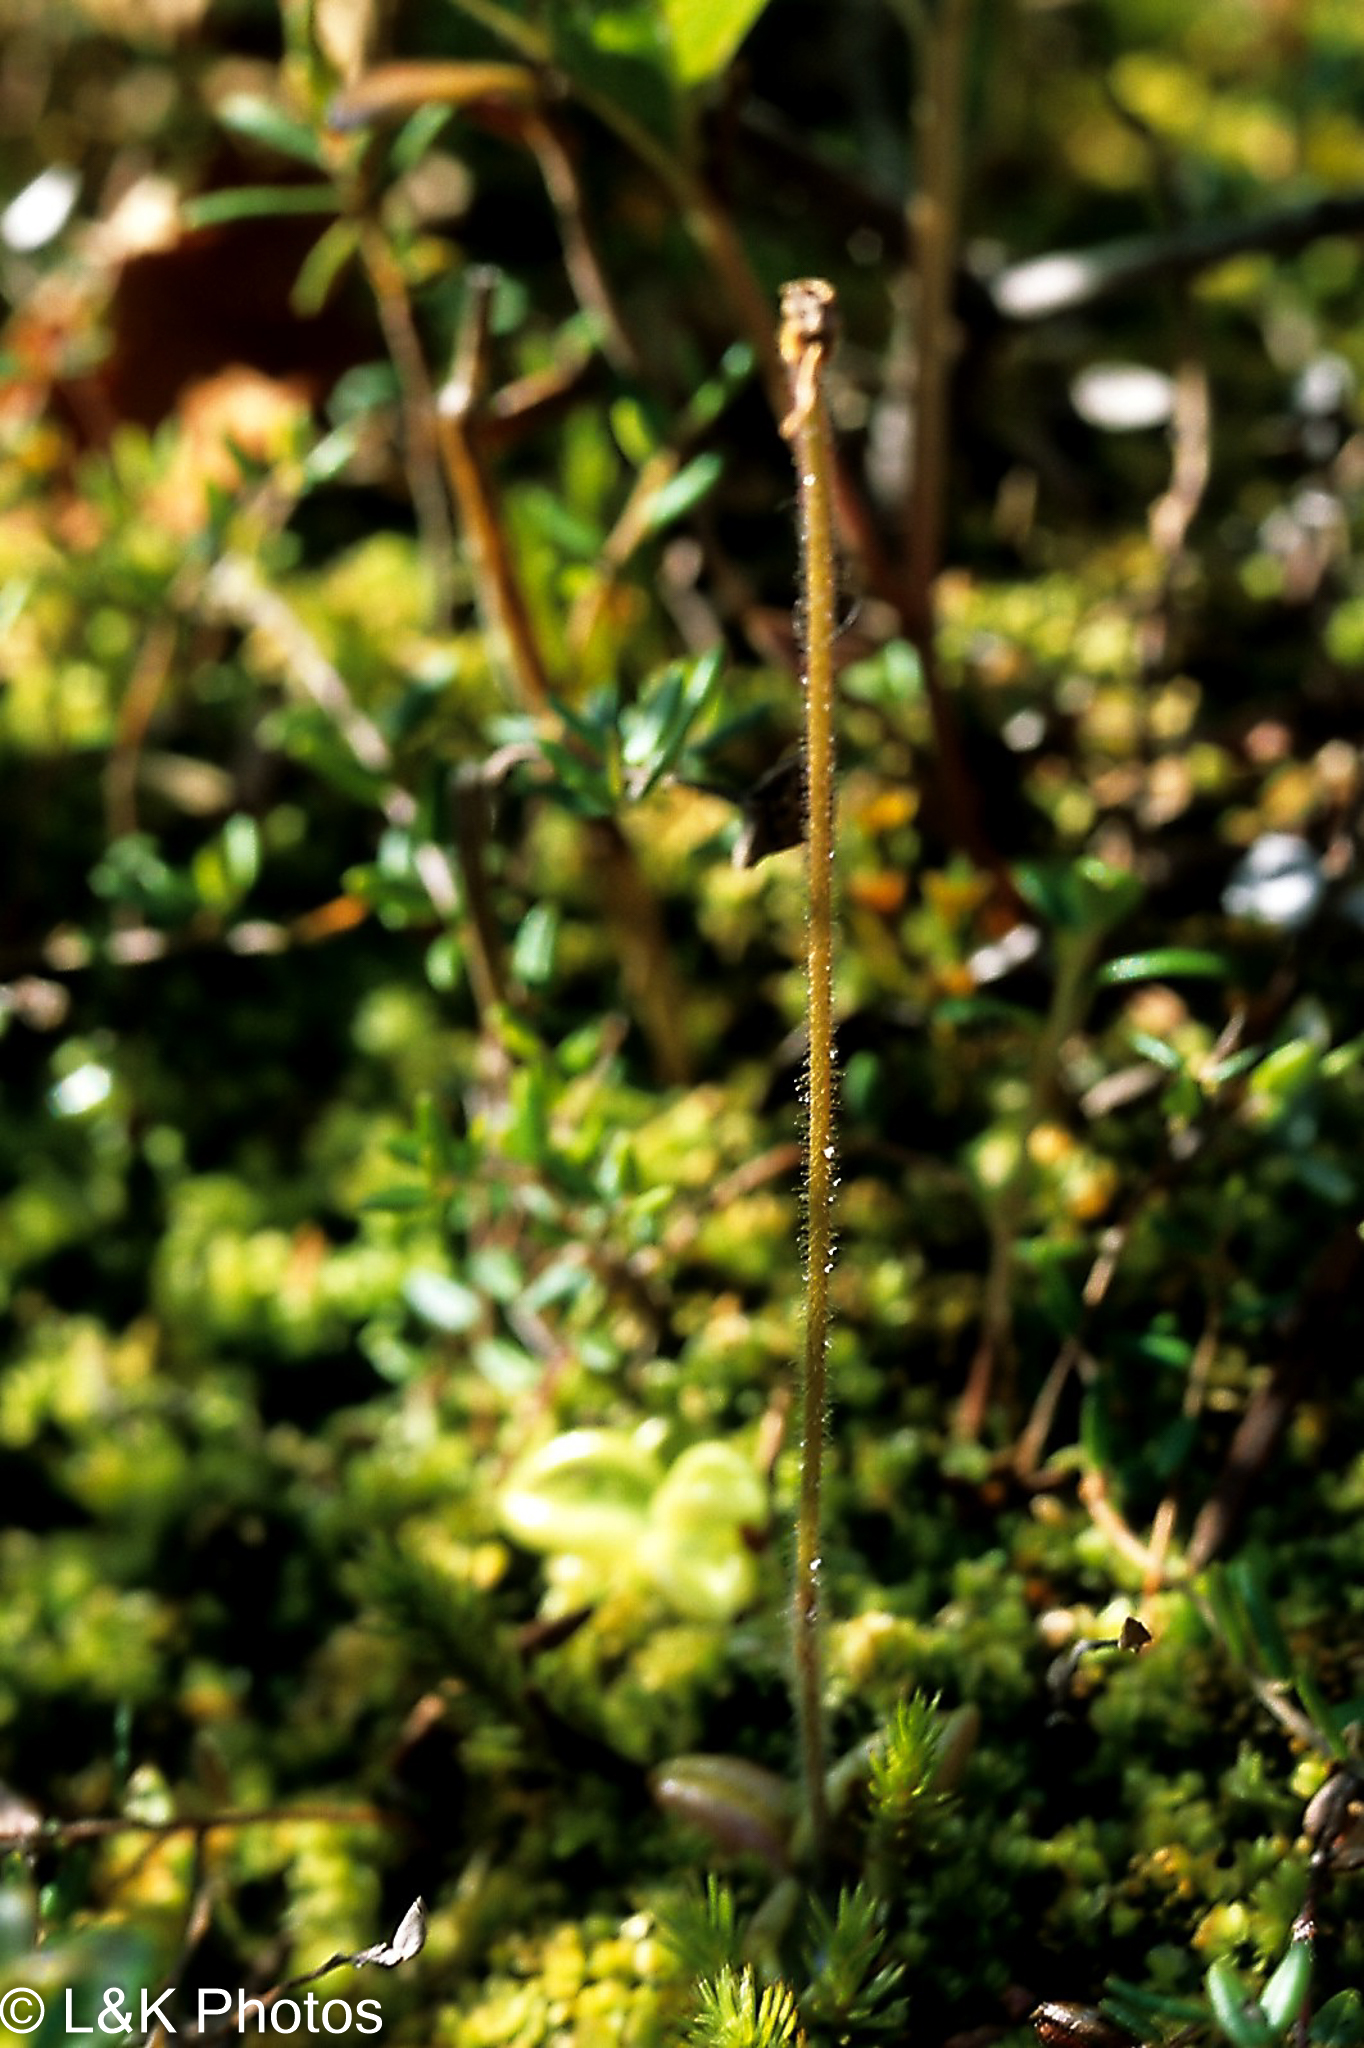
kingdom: Plantae
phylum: Tracheophyta
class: Magnoliopsida
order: Lamiales
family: Lentibulariaceae
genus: Pinguicula
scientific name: Pinguicula villosa
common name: Hairy butterwort
